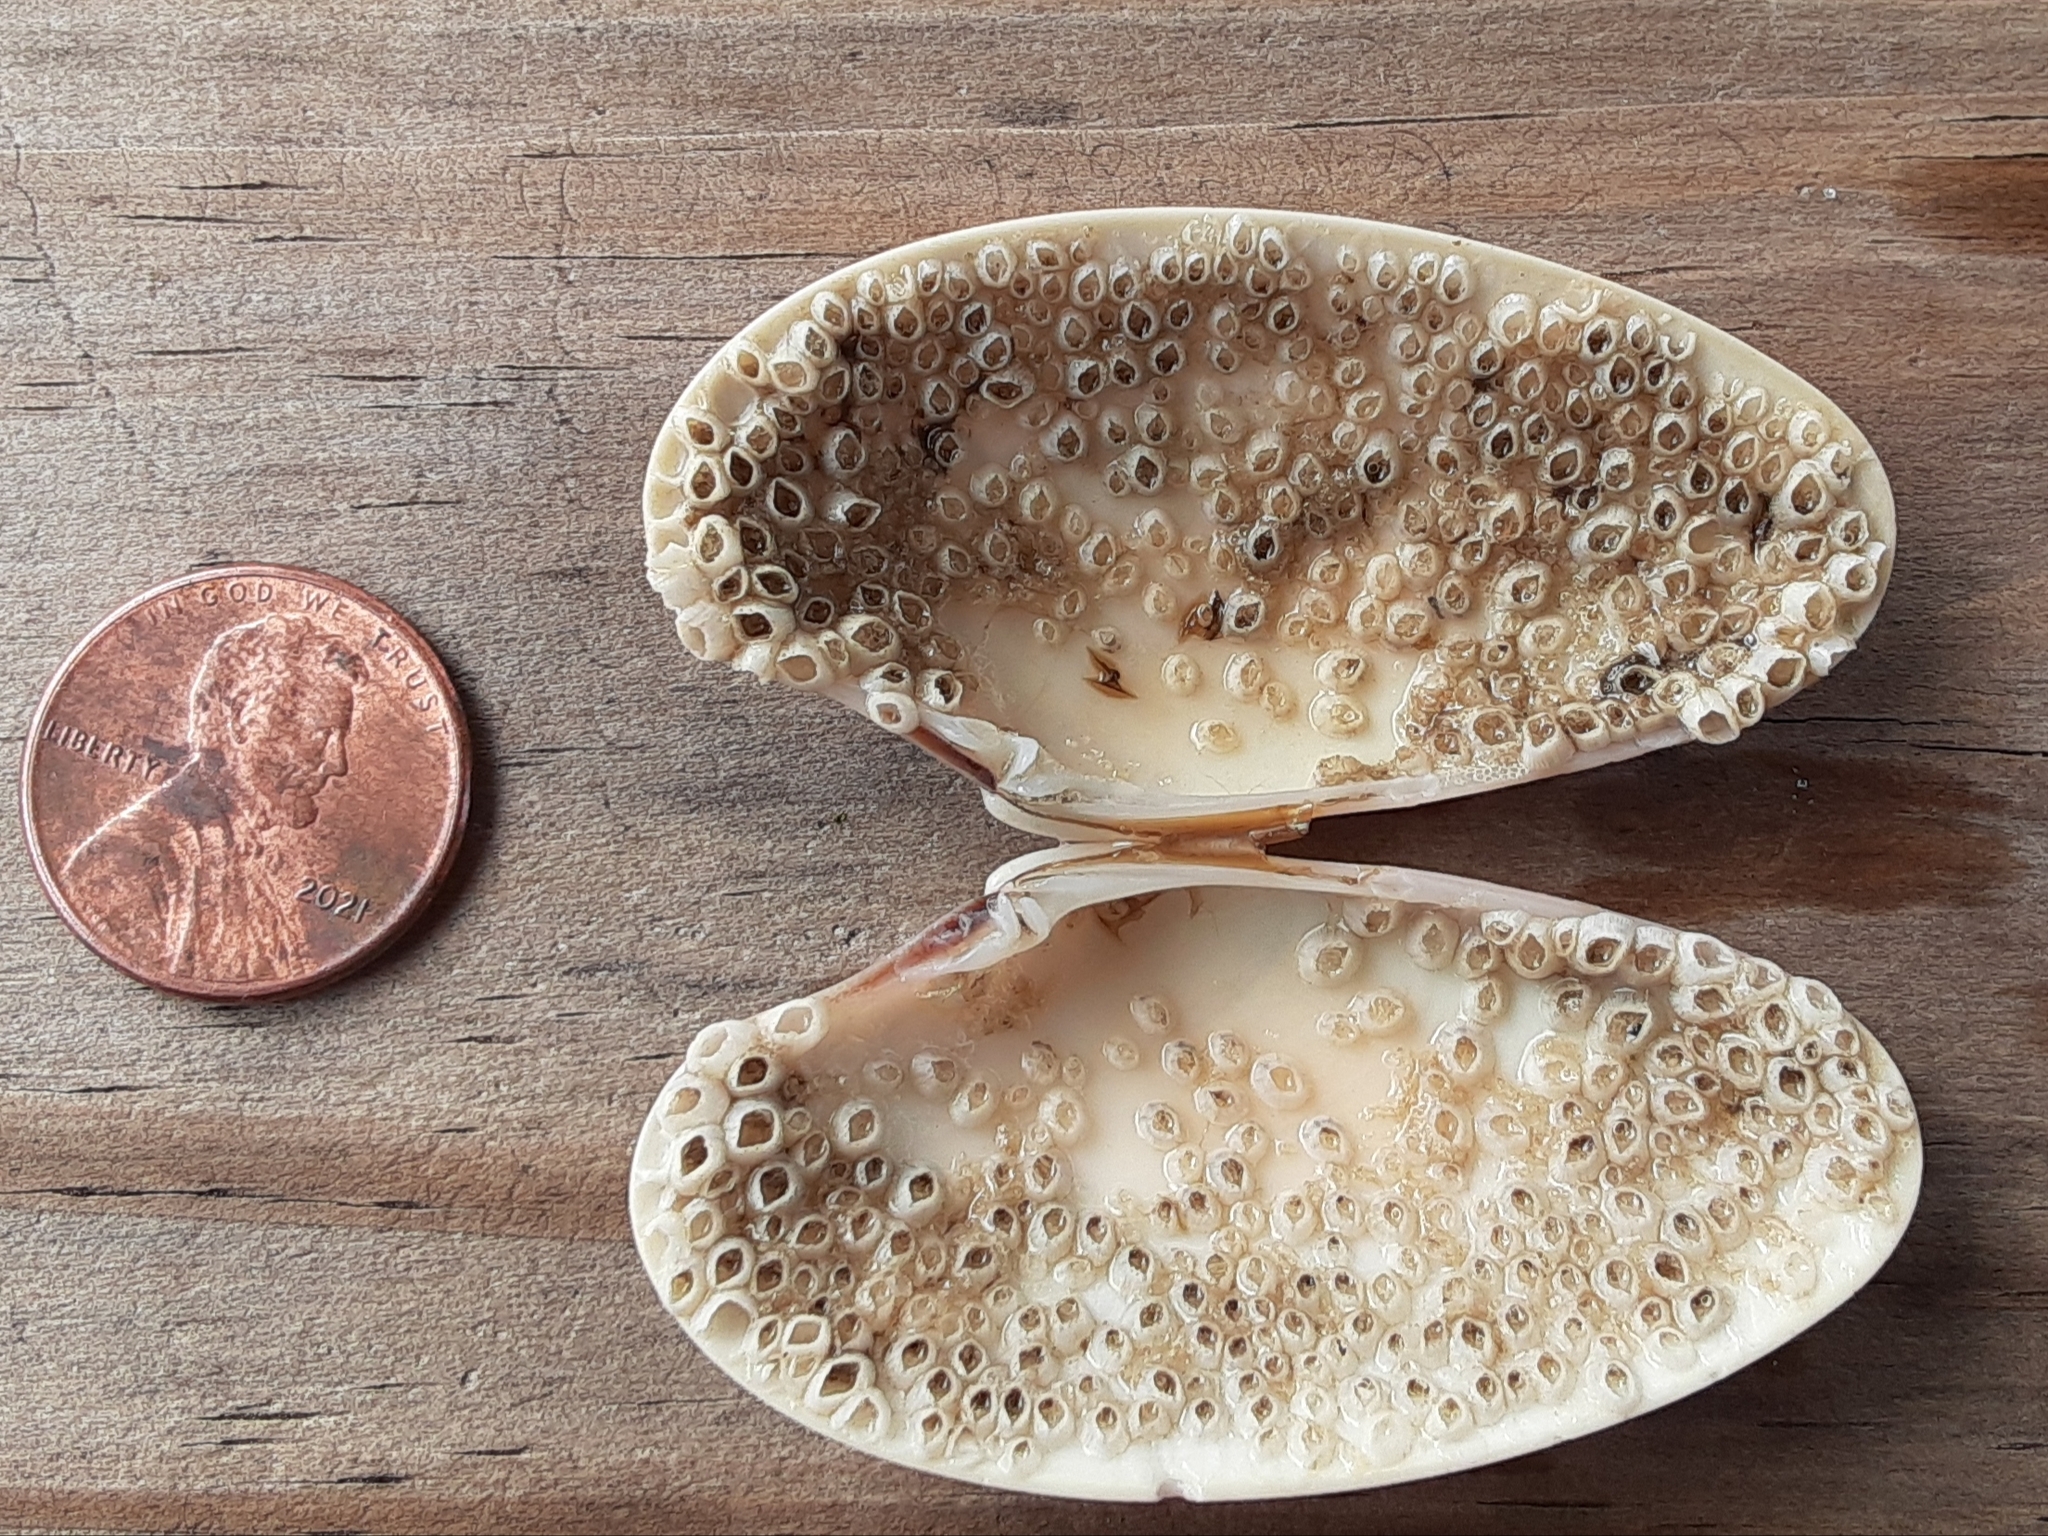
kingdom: Animalia
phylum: Mollusca
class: Bivalvia
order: Venerida
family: Veneridae
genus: Macrocallista
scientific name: Macrocallista nimbosa
